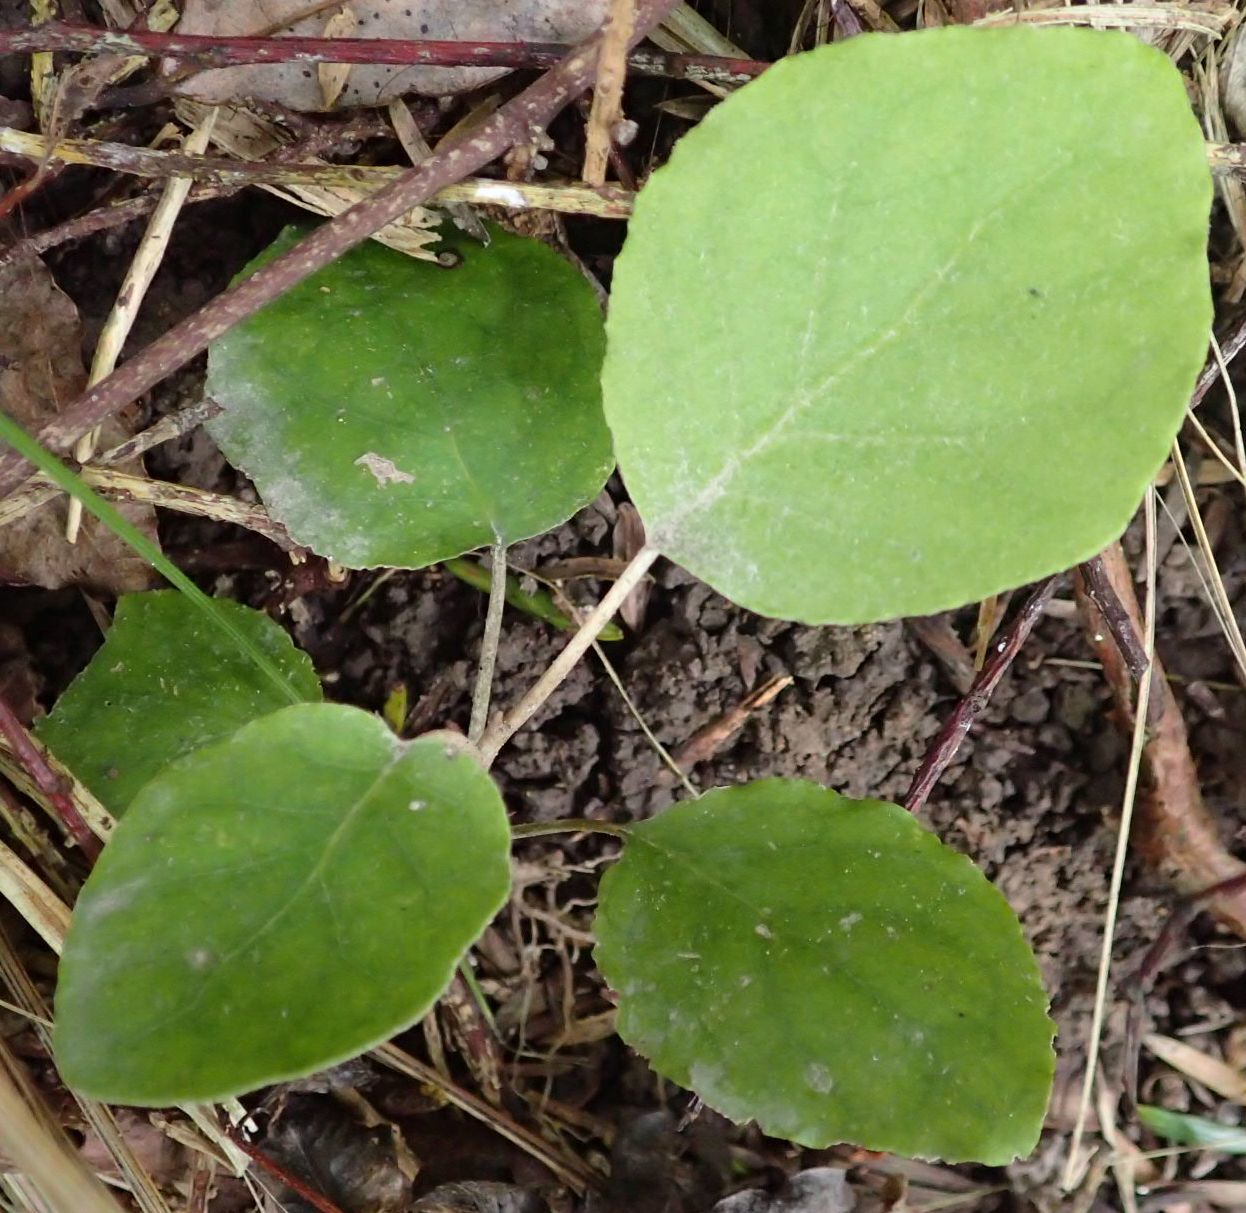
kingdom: Plantae
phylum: Tracheophyta
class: Magnoliopsida
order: Asterales
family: Asteraceae
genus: Brachyglottis
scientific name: Brachyglottis repanda
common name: Hedge ragwort
